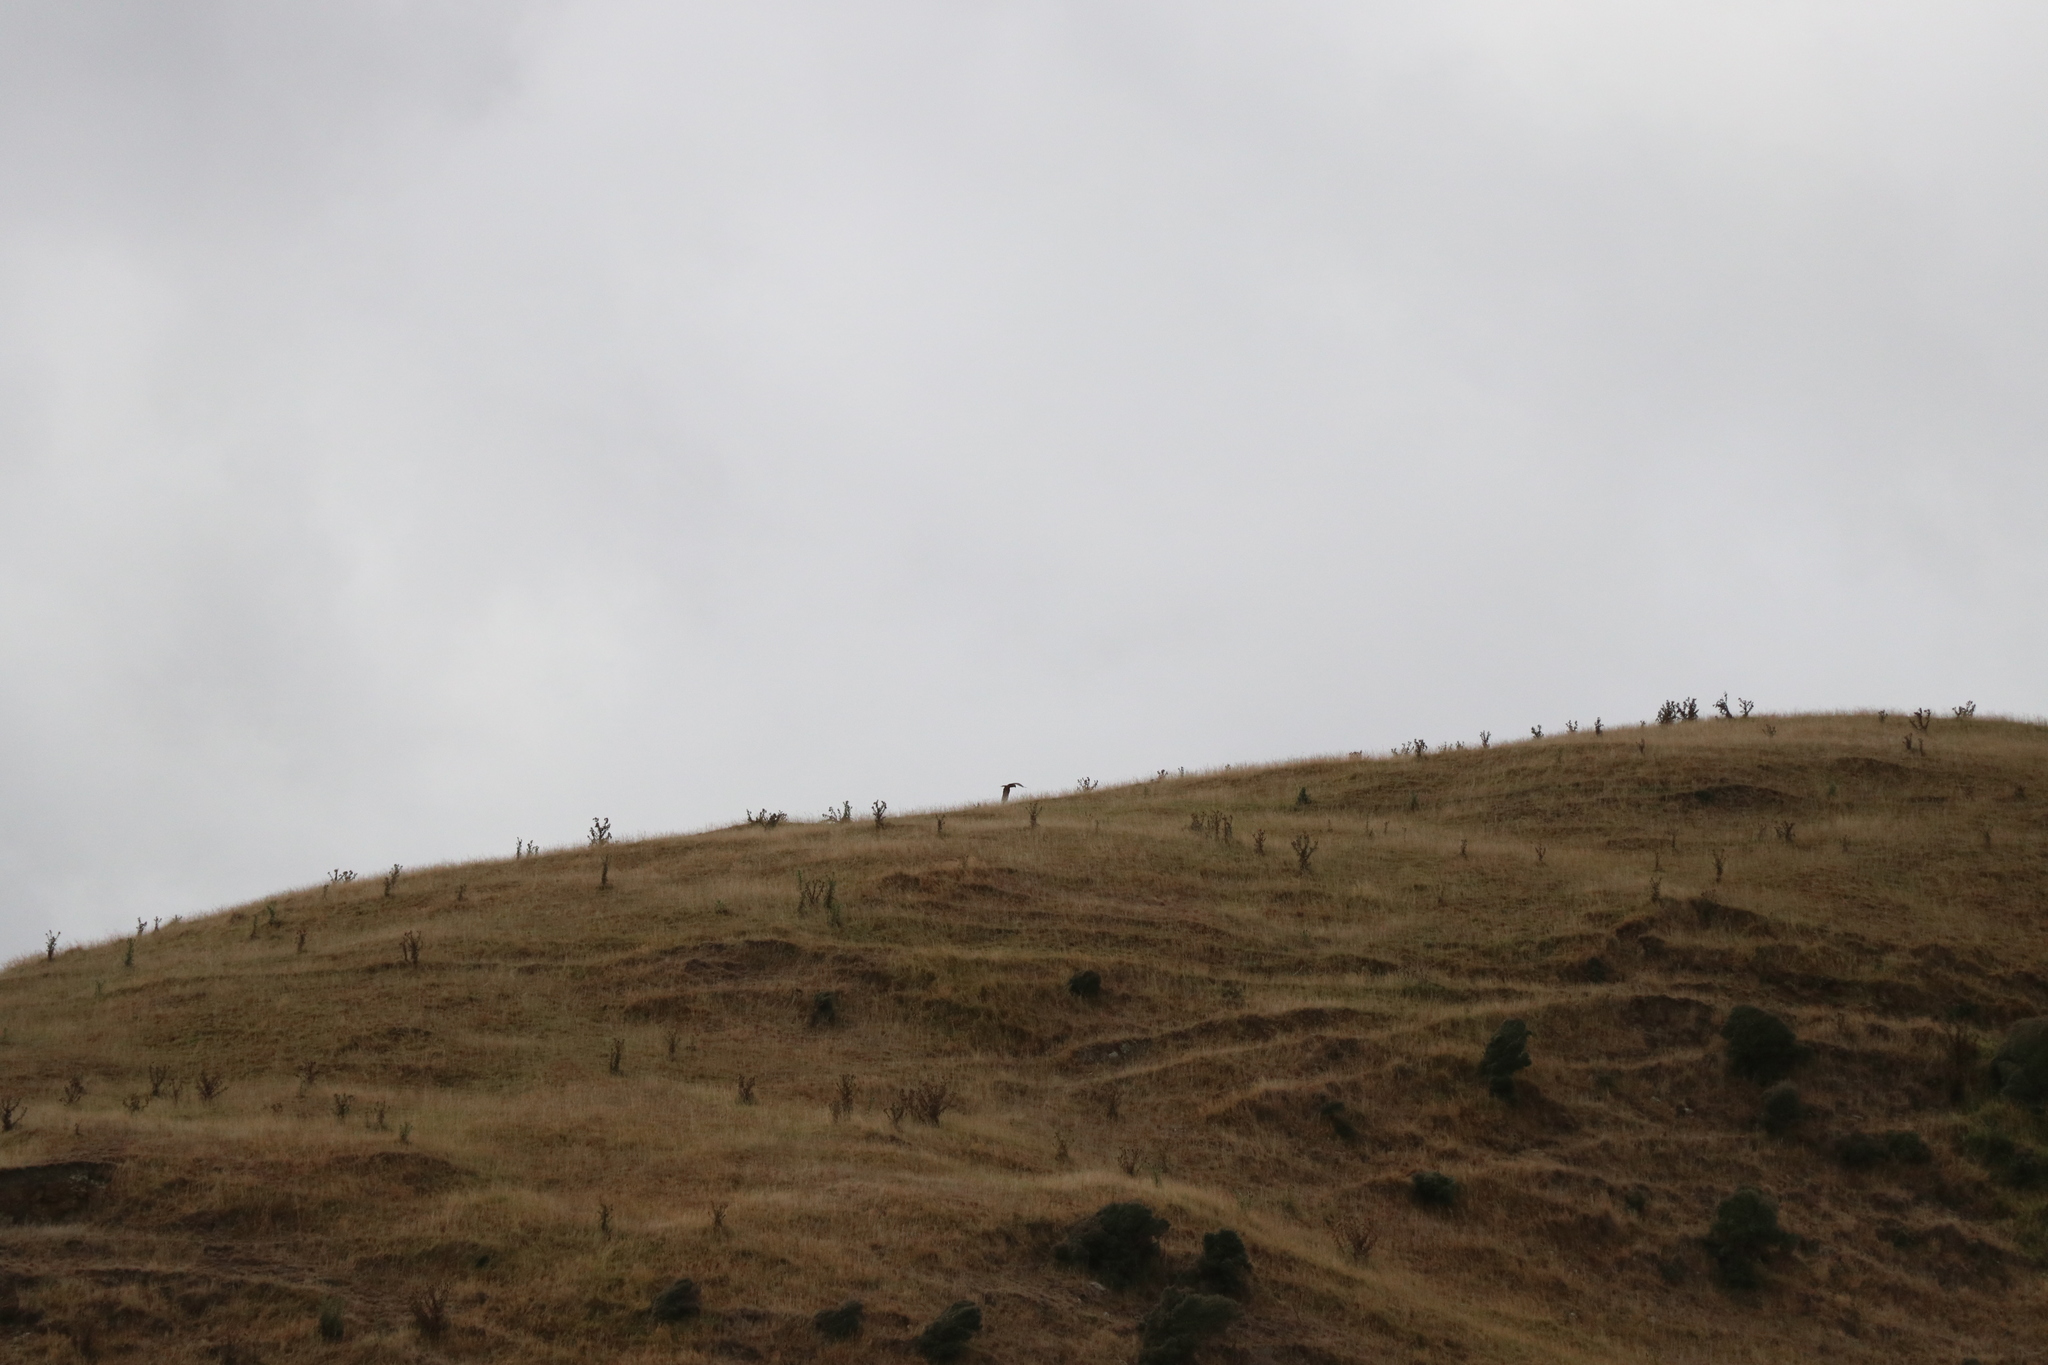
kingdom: Animalia
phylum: Chordata
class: Aves
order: Accipitriformes
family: Accipitridae
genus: Circus
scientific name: Circus approximans
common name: Swamp harrier
